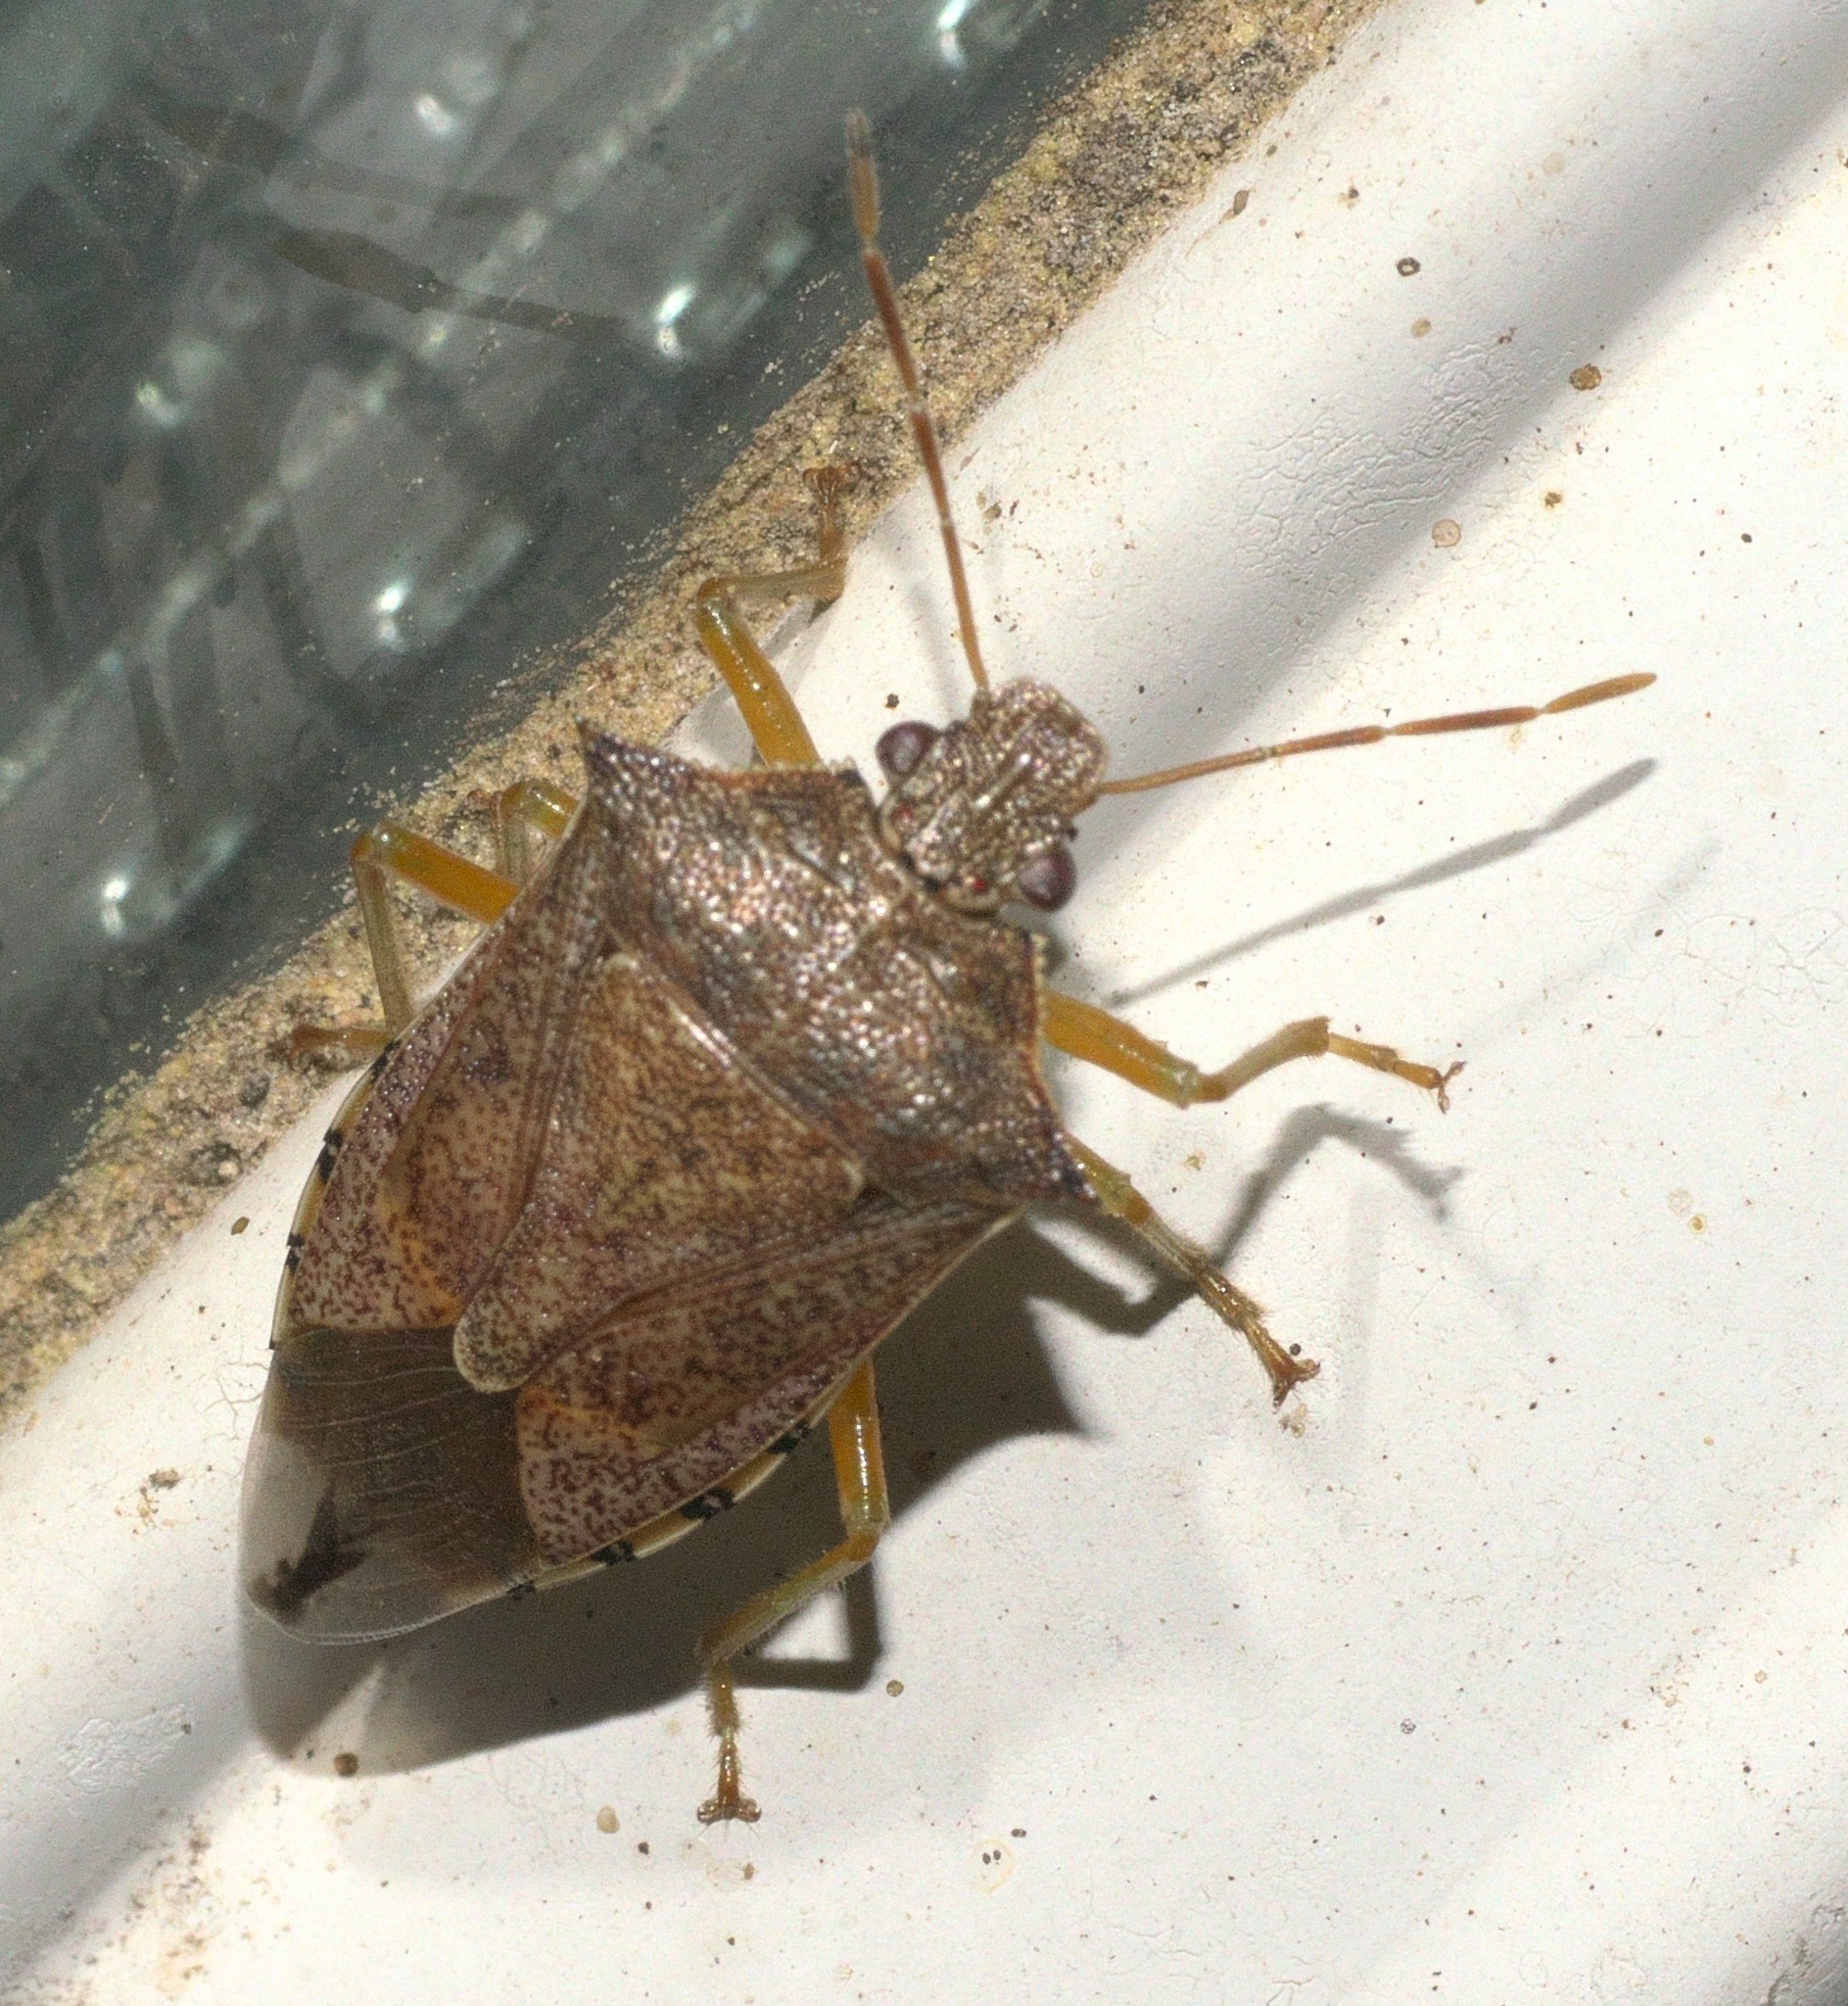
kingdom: Animalia
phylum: Arthropoda
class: Insecta
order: Hemiptera
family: Pentatomidae
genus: Podisus
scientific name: Podisus maculiventris
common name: Spined soldier bug
